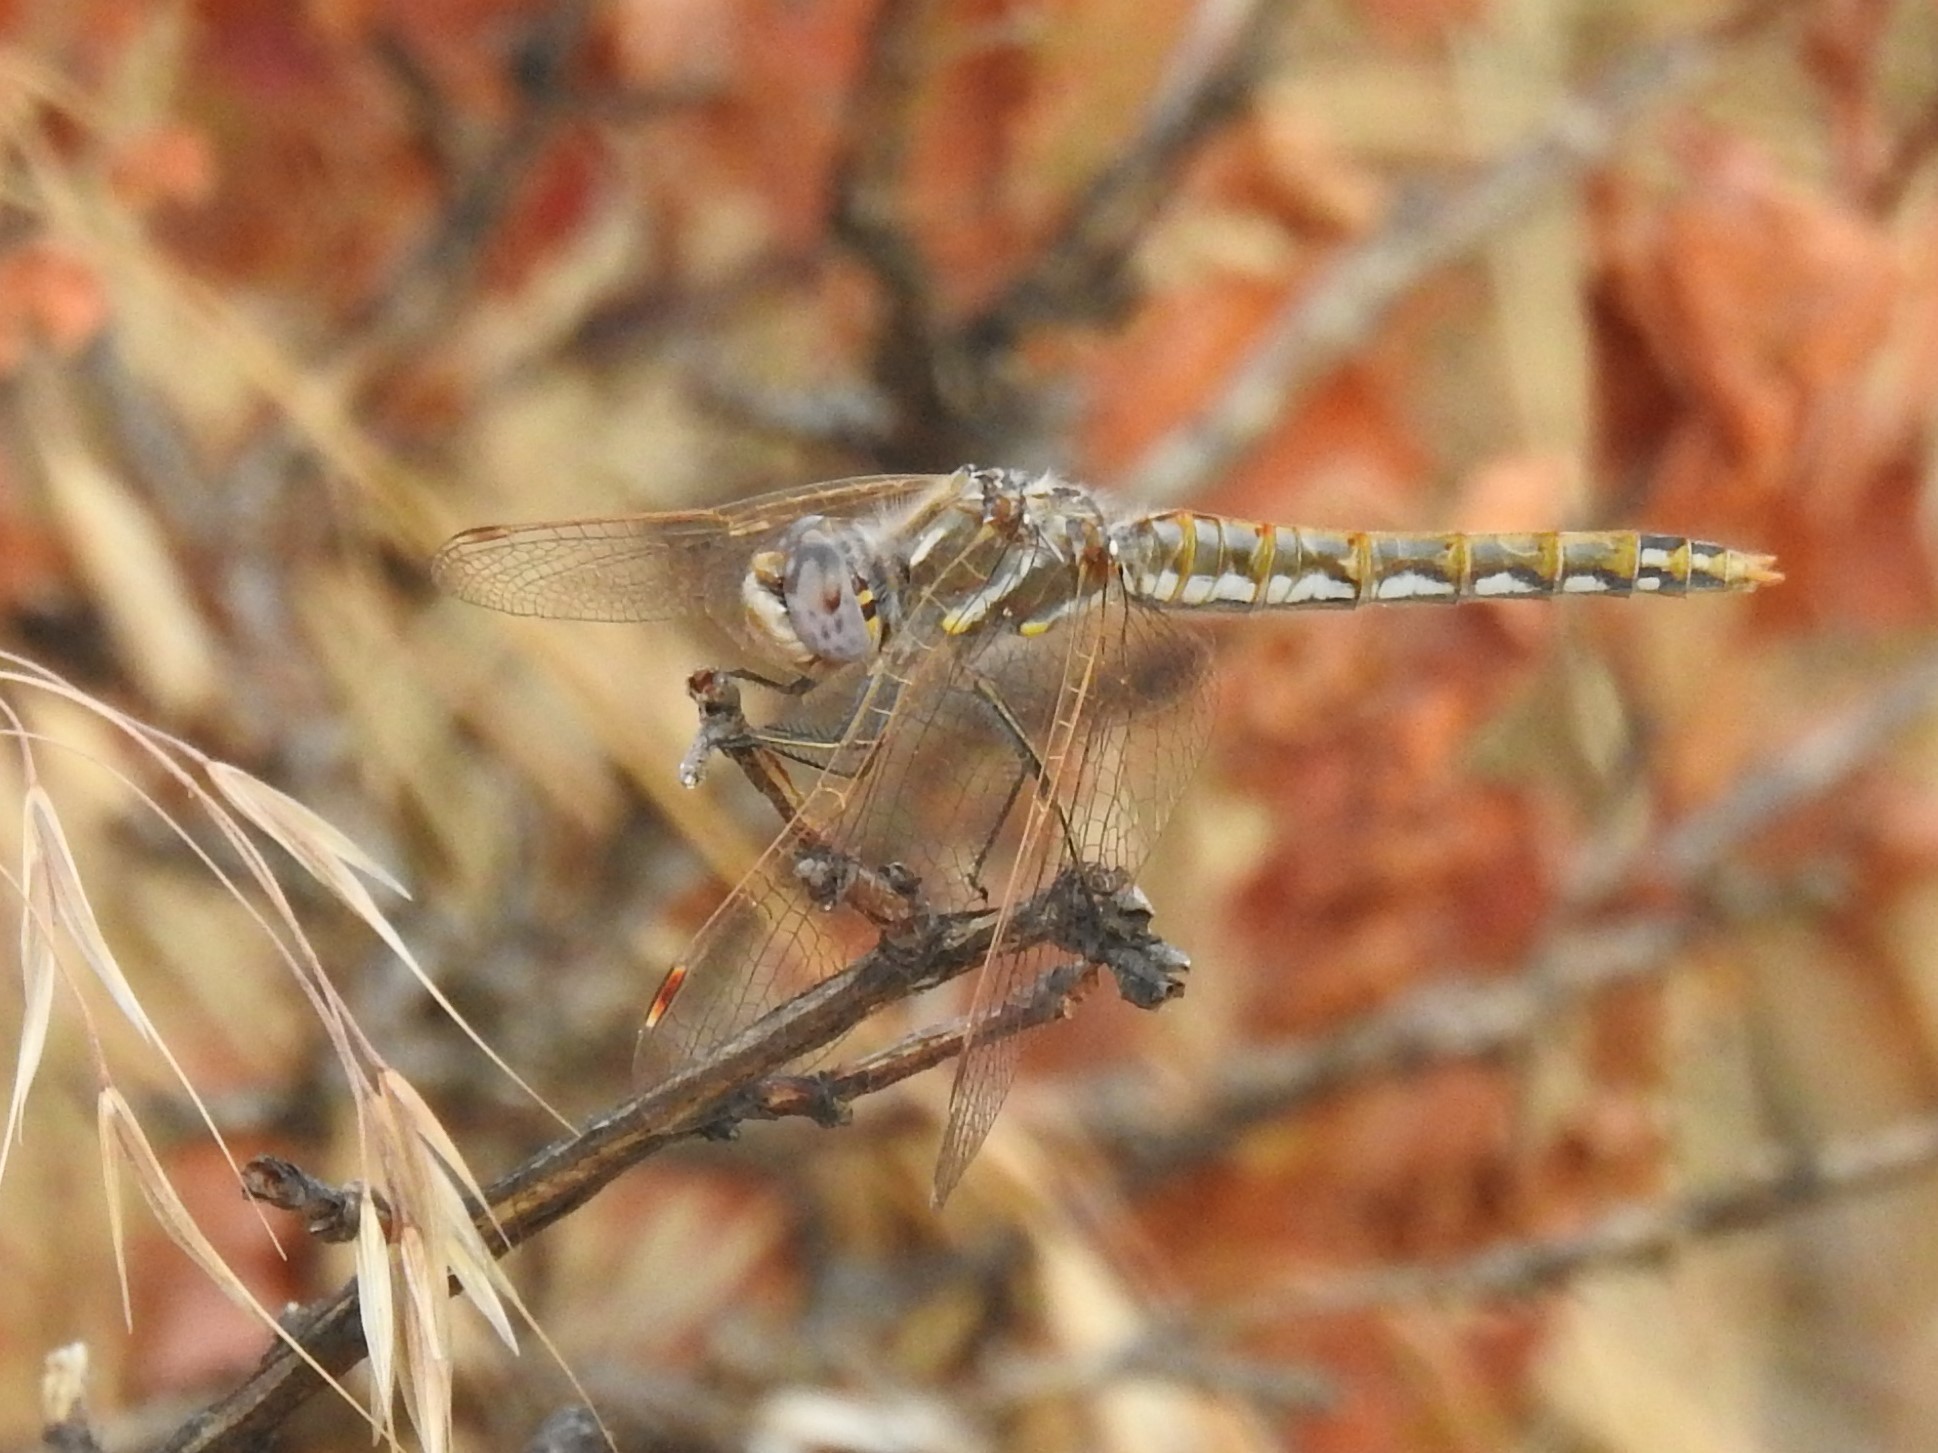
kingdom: Animalia
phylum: Arthropoda
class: Insecta
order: Odonata
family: Libellulidae
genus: Sympetrum
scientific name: Sympetrum corruptum
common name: Variegated meadowhawk
